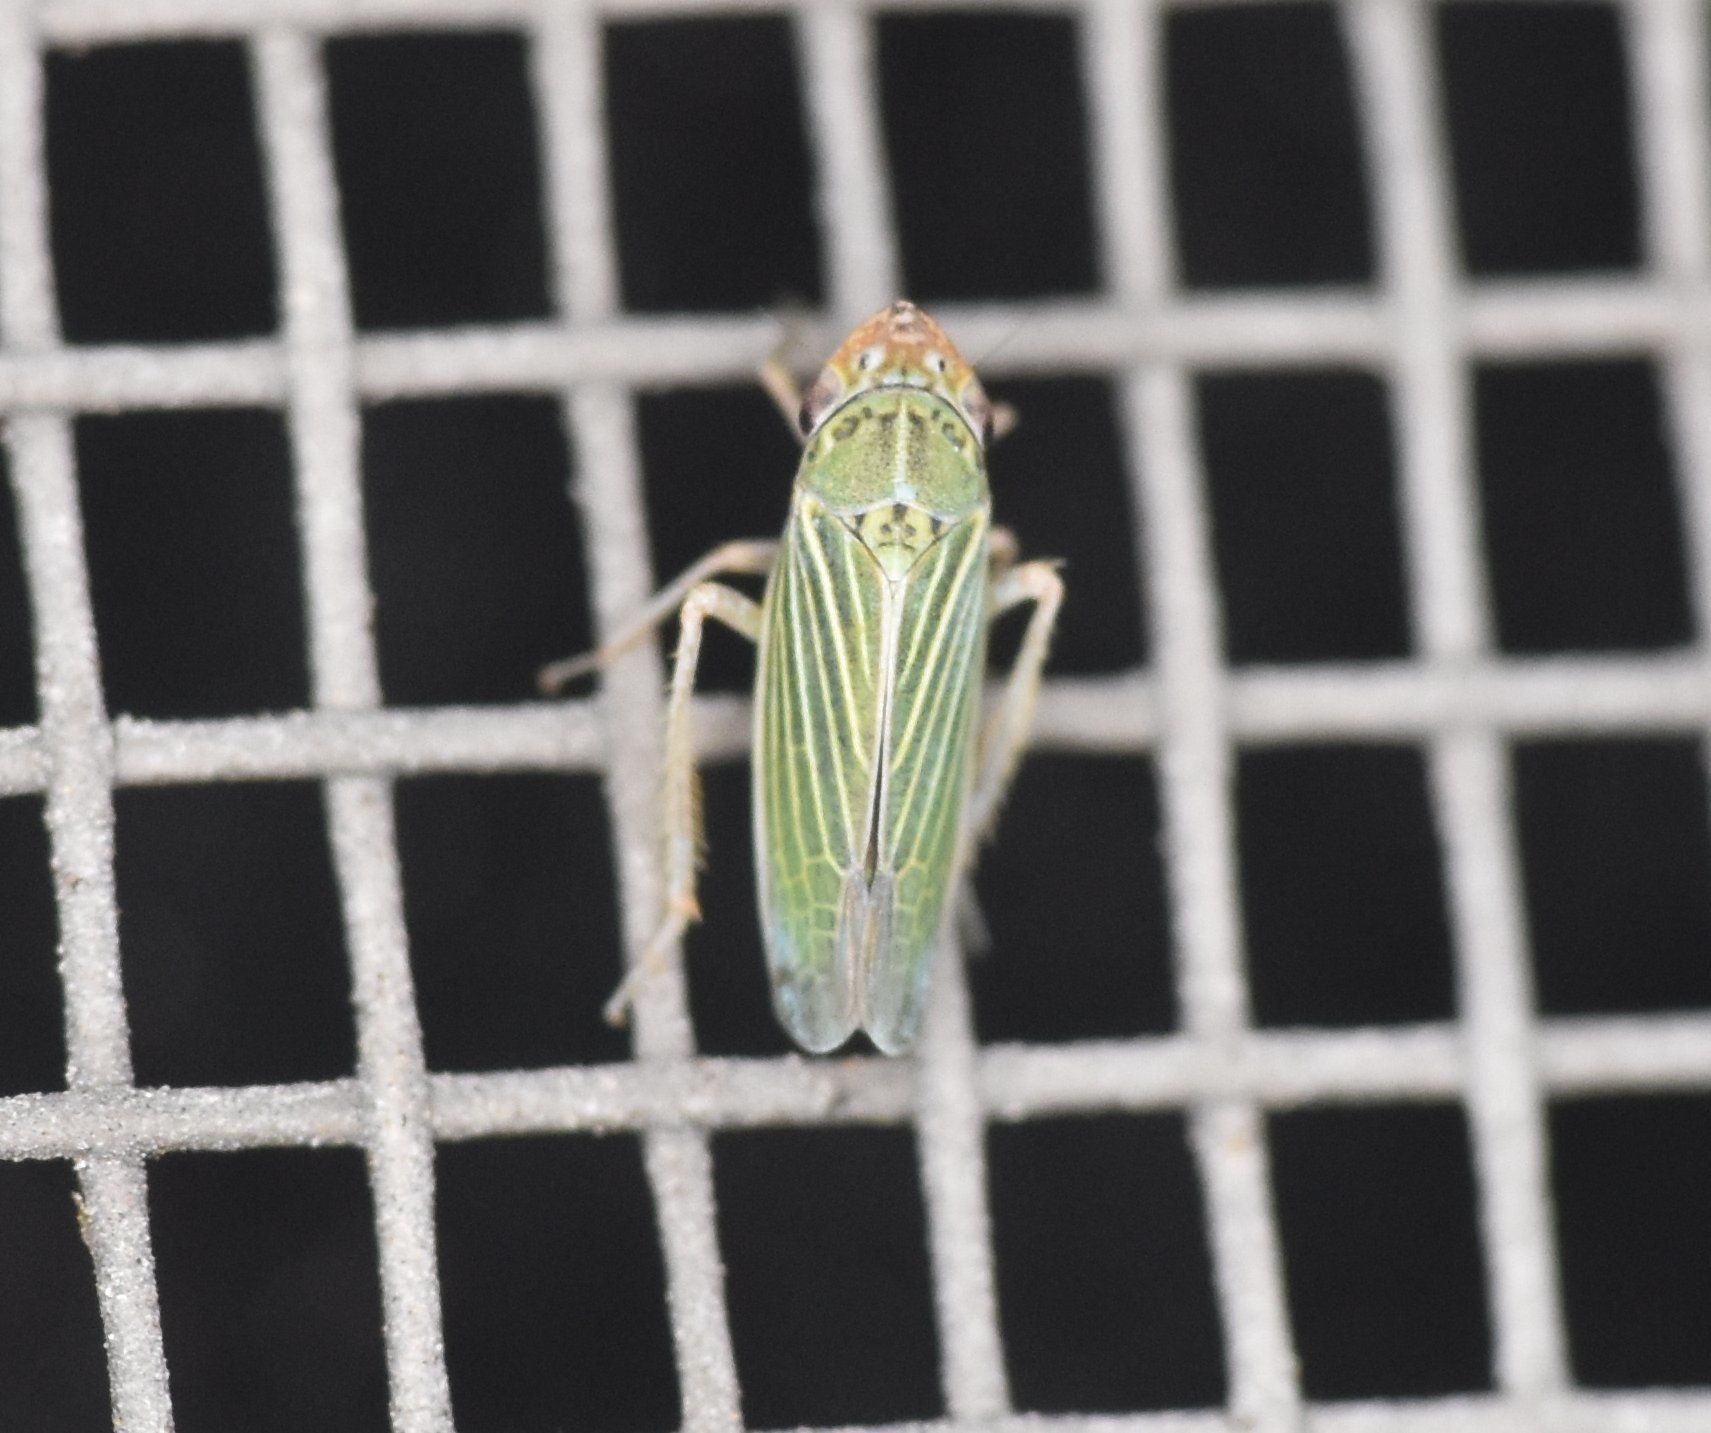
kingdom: Animalia
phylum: Arthropoda
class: Insecta
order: Hemiptera
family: Cicadellidae
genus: Xyphon
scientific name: Xyphon reticulatum
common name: Planthopper
